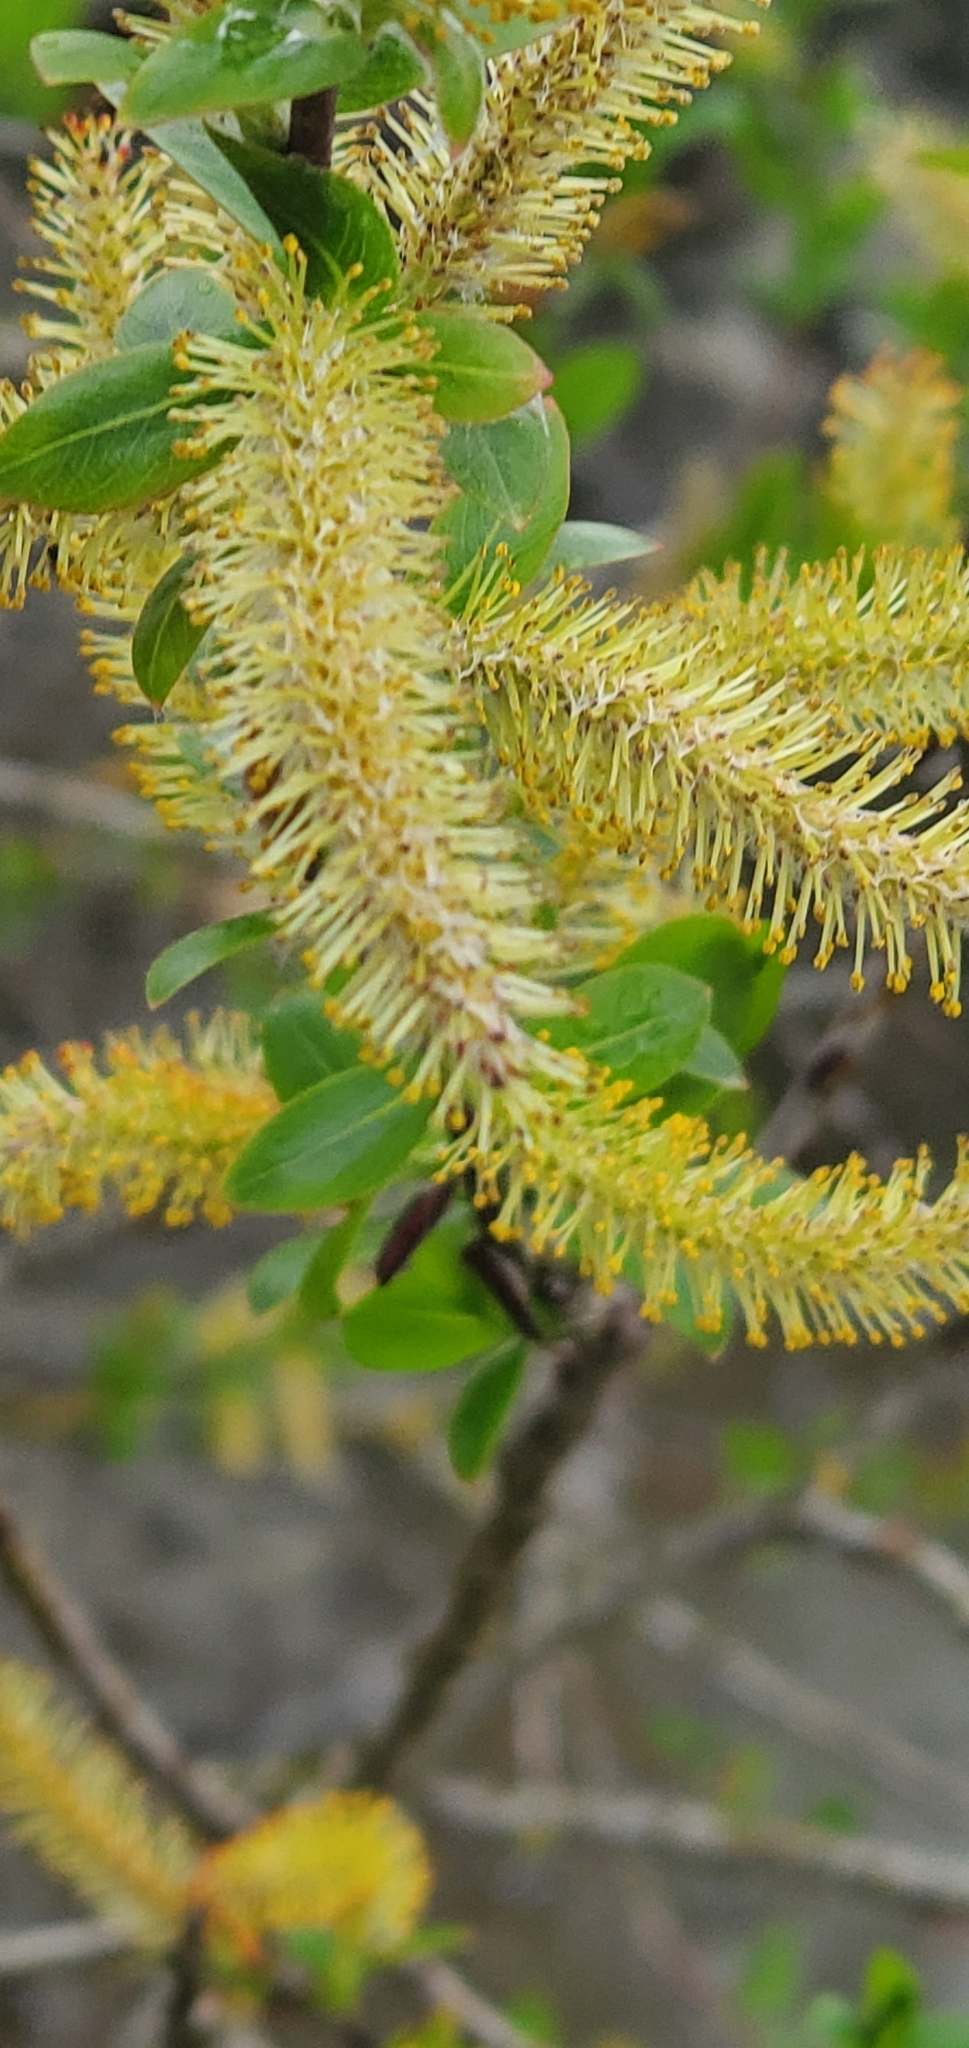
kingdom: Plantae
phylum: Tracheophyta
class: Magnoliopsida
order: Malpighiales
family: Salicaceae
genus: Salix
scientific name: Salix lucida
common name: Shining willow
